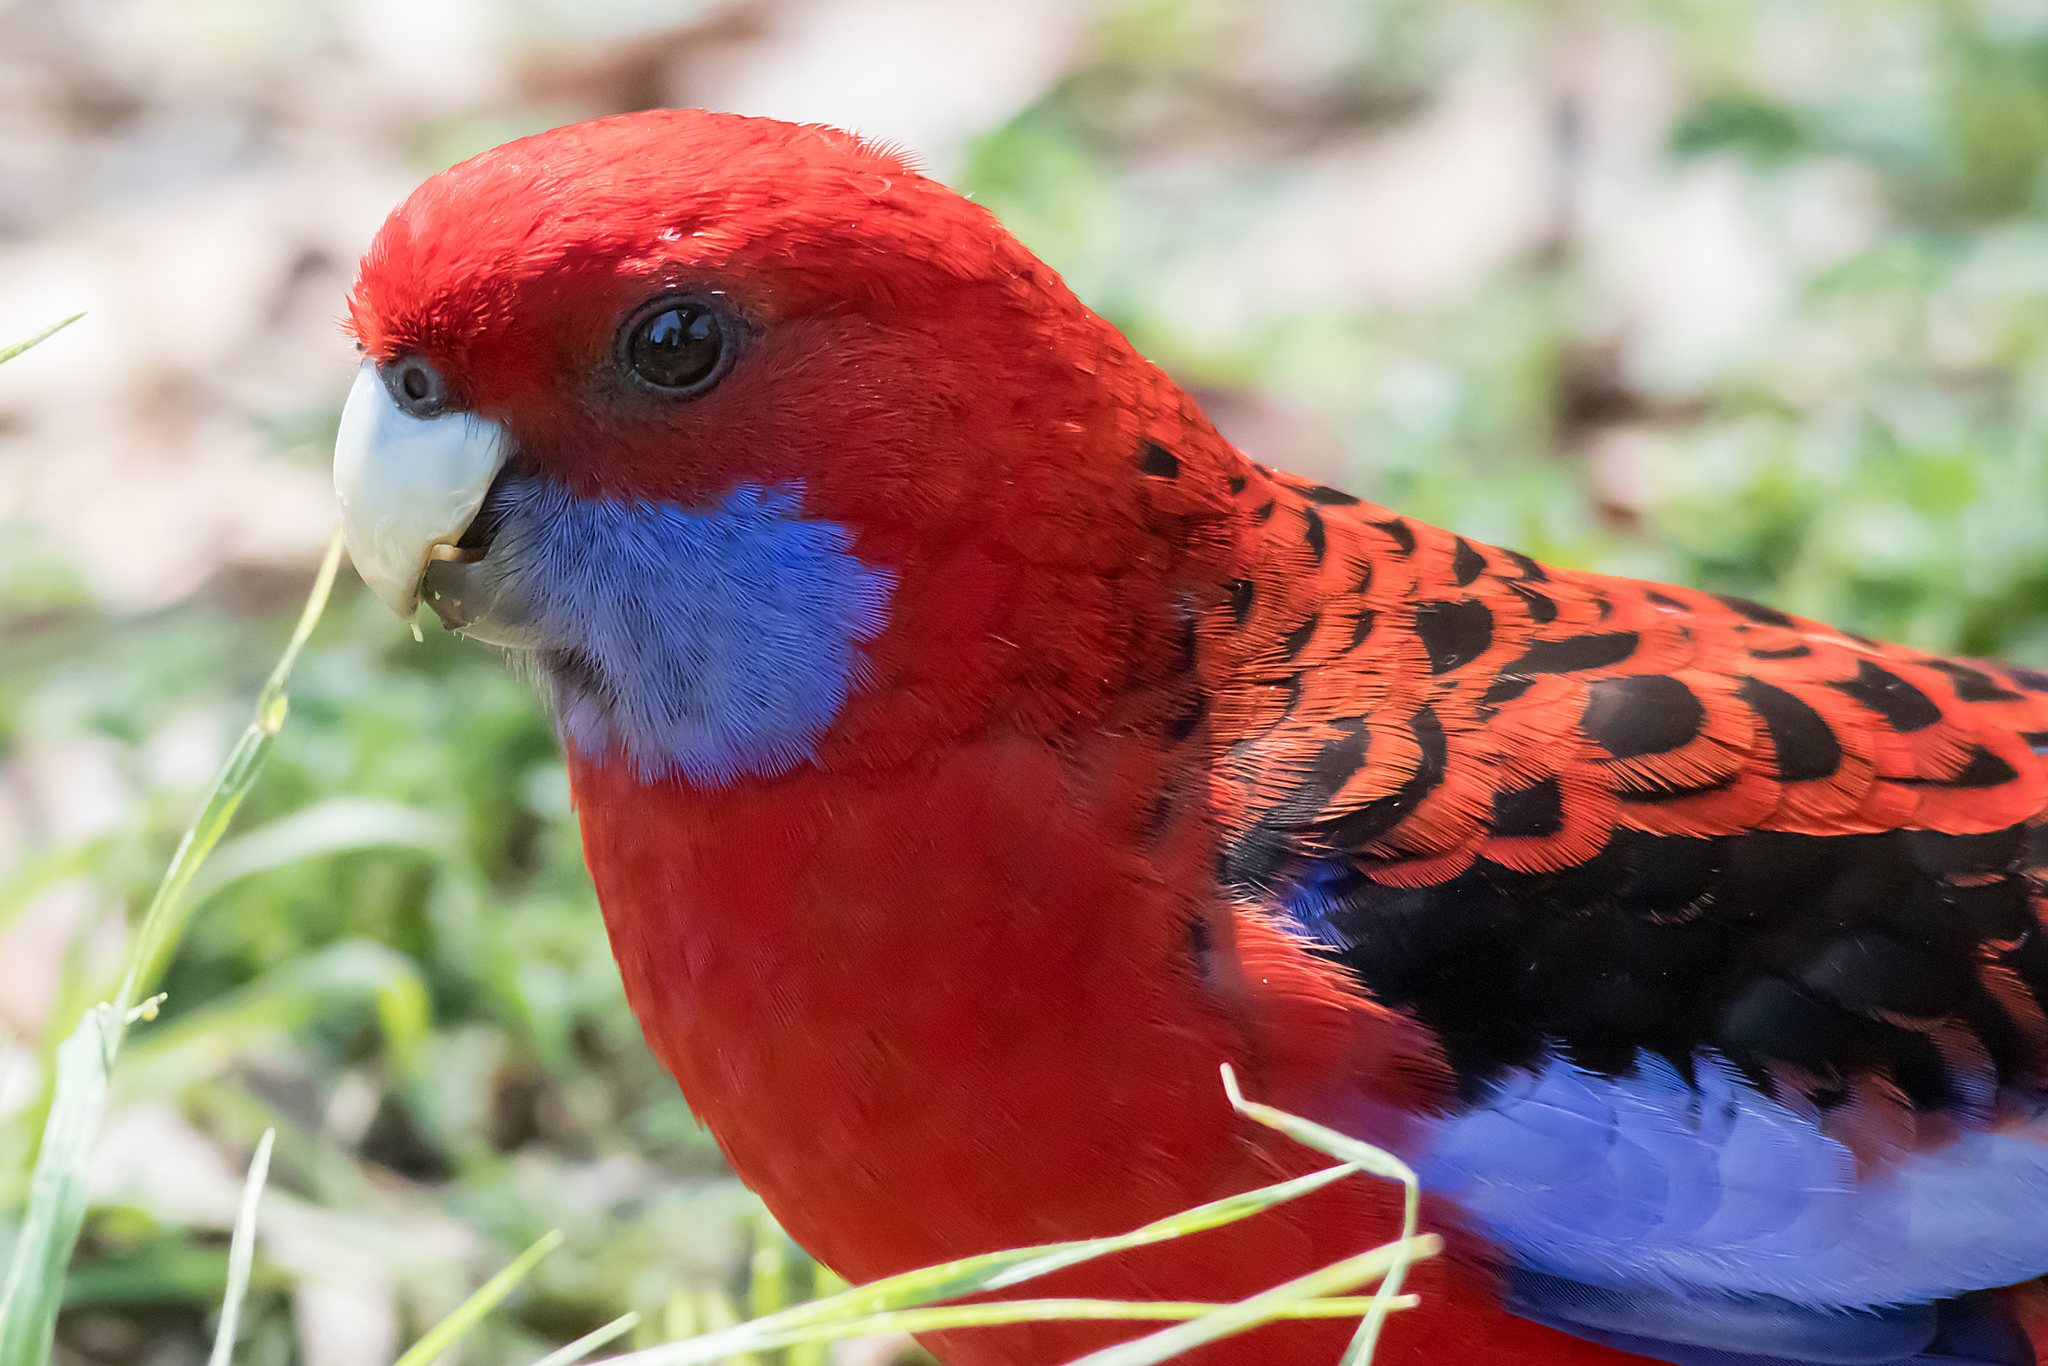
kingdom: Animalia
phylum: Chordata
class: Aves
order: Psittaciformes
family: Psittacidae
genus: Platycercus
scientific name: Platycercus elegans
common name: Crimson rosella
